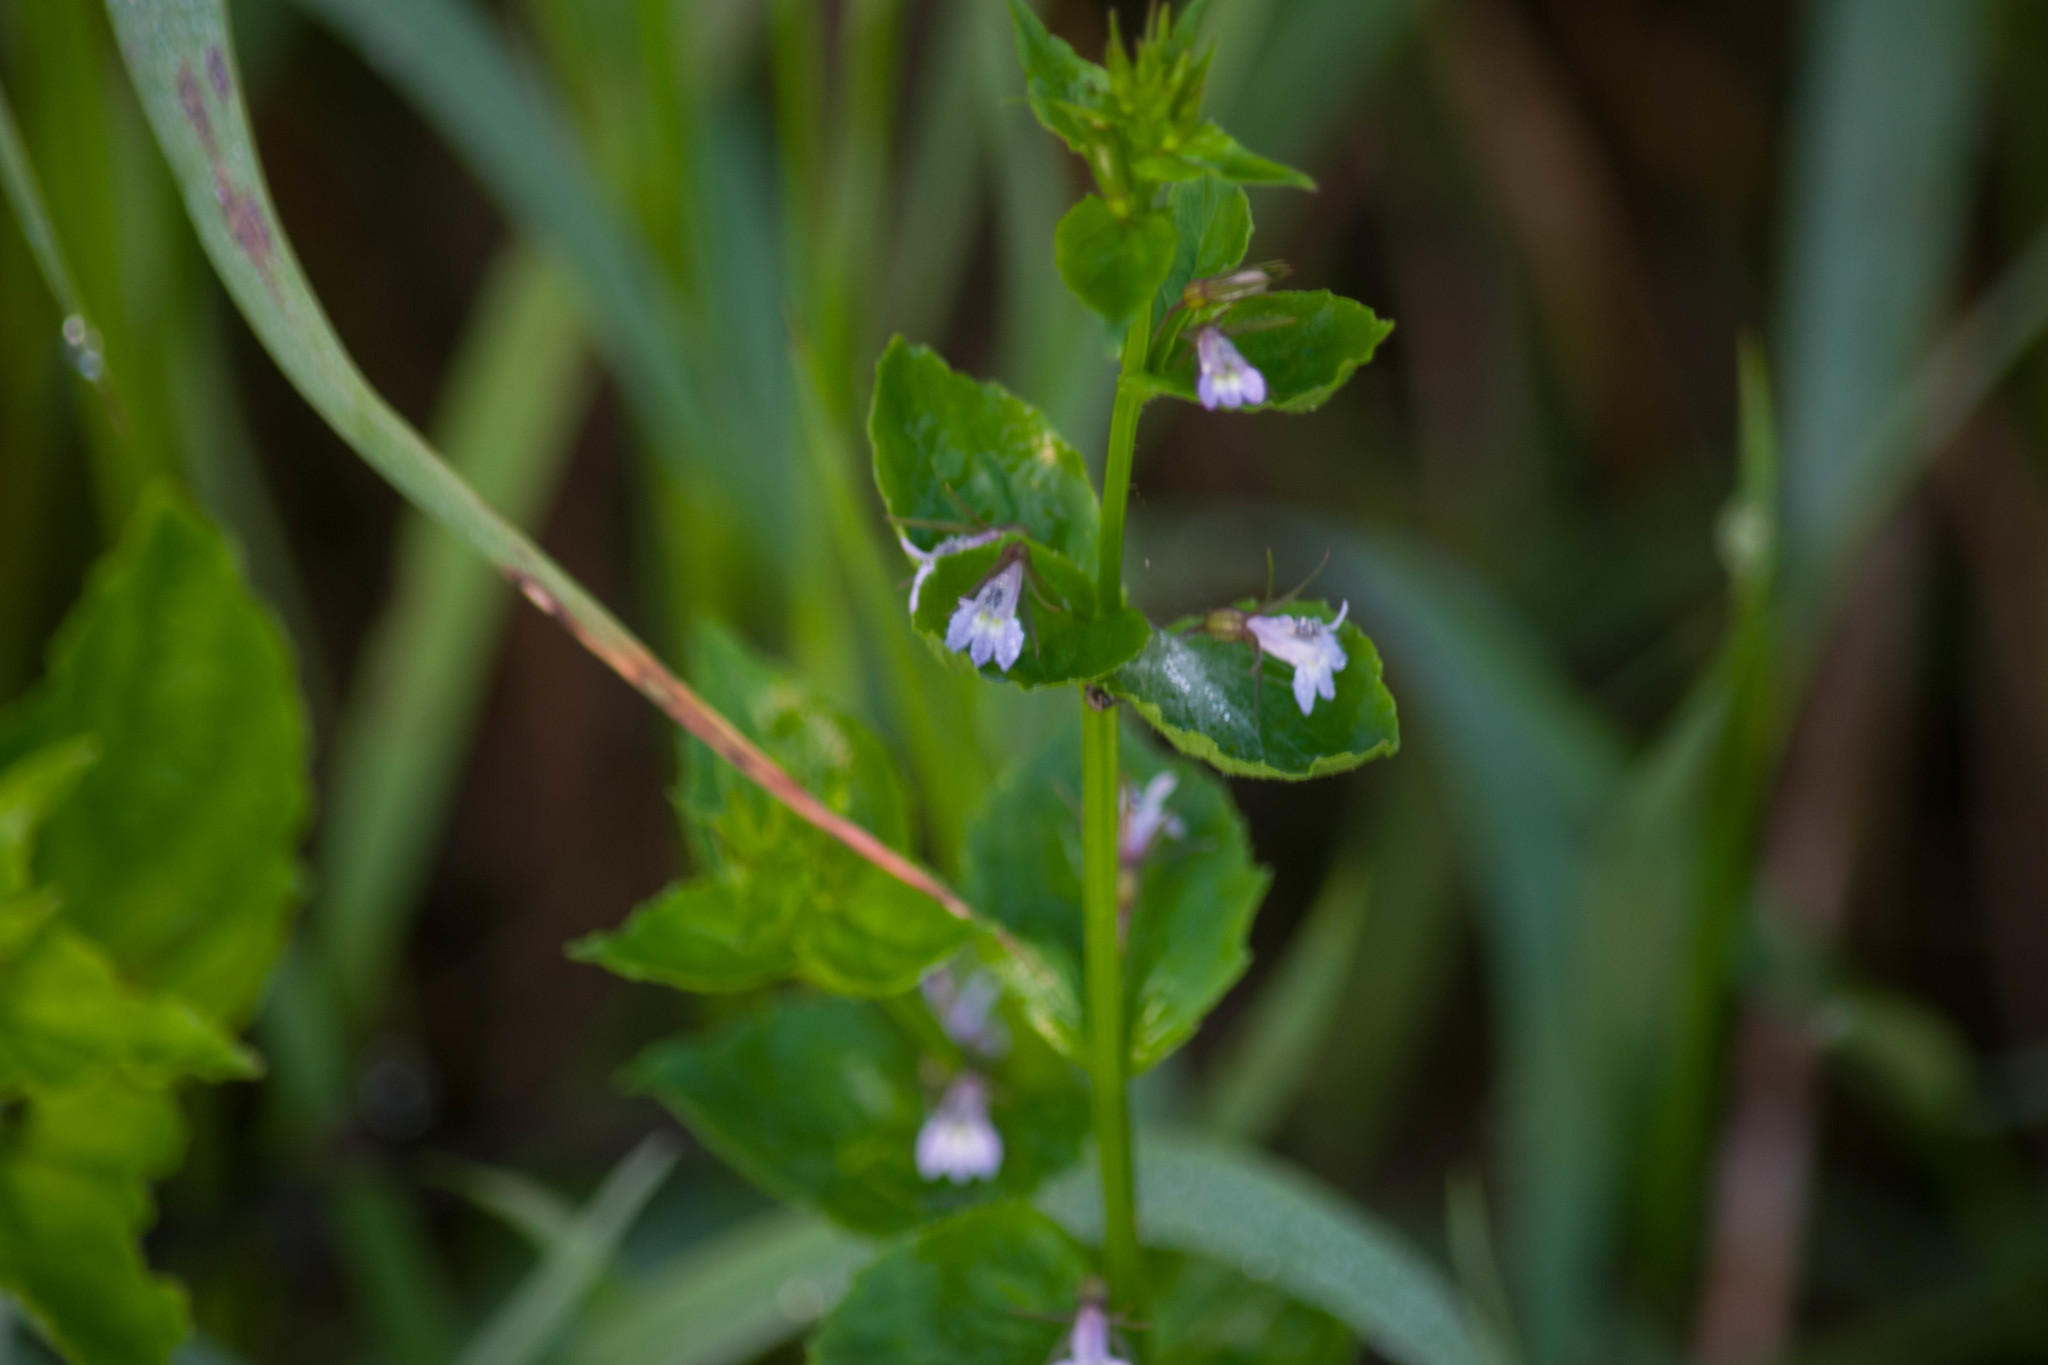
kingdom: Plantae
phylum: Tracheophyta
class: Magnoliopsida
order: Asterales
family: Campanulaceae
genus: Lobelia
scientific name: Lobelia inflata
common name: Indian tobacco
